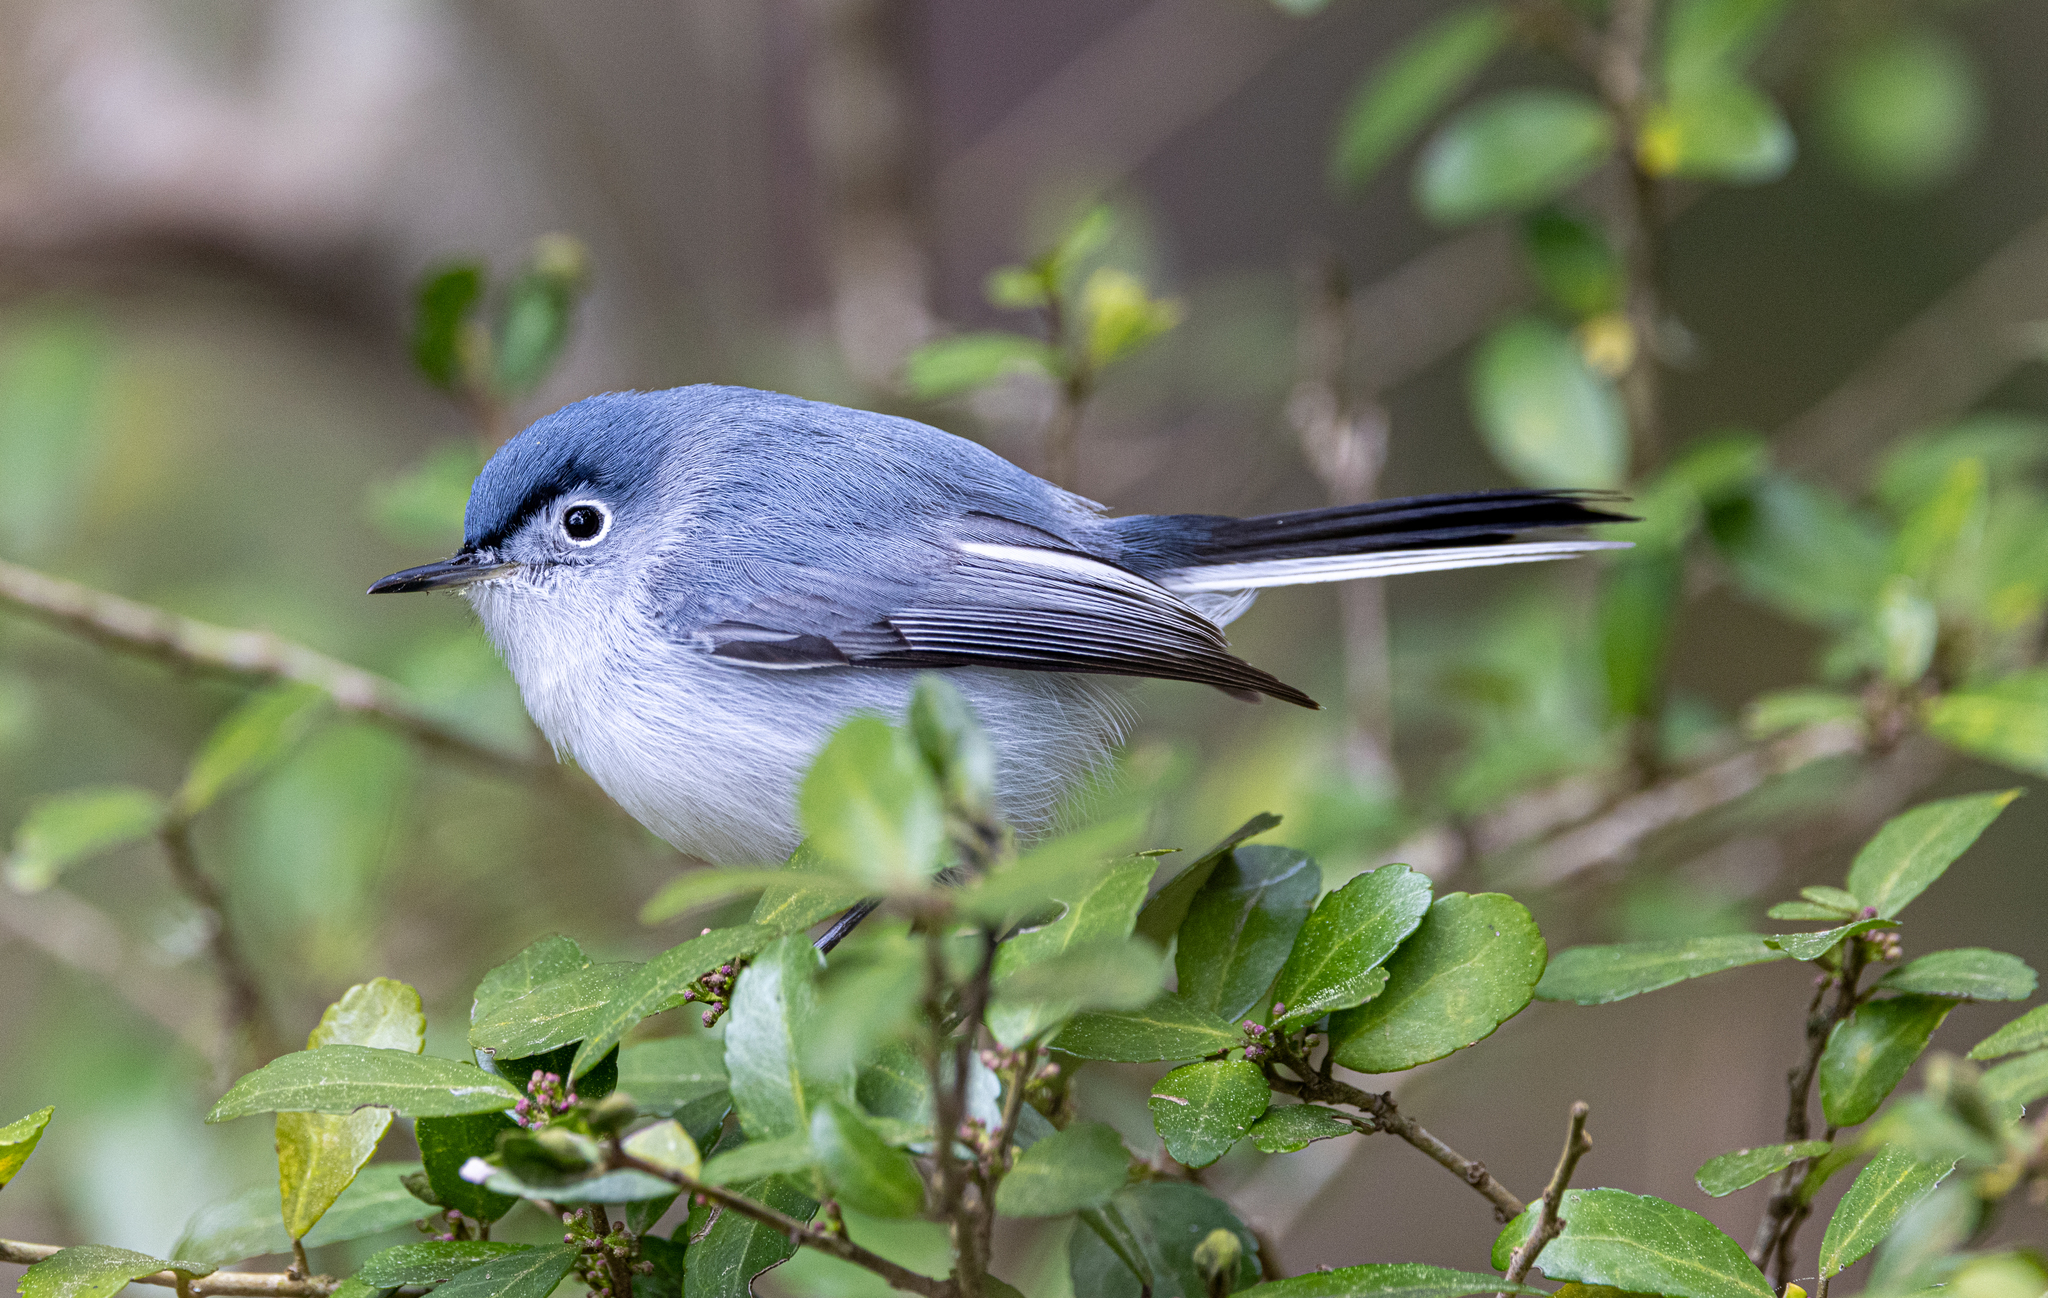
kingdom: Animalia
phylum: Chordata
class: Aves
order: Passeriformes
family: Polioptilidae
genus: Polioptila
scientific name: Polioptila caerulea
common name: Blue-gray gnatcatcher
